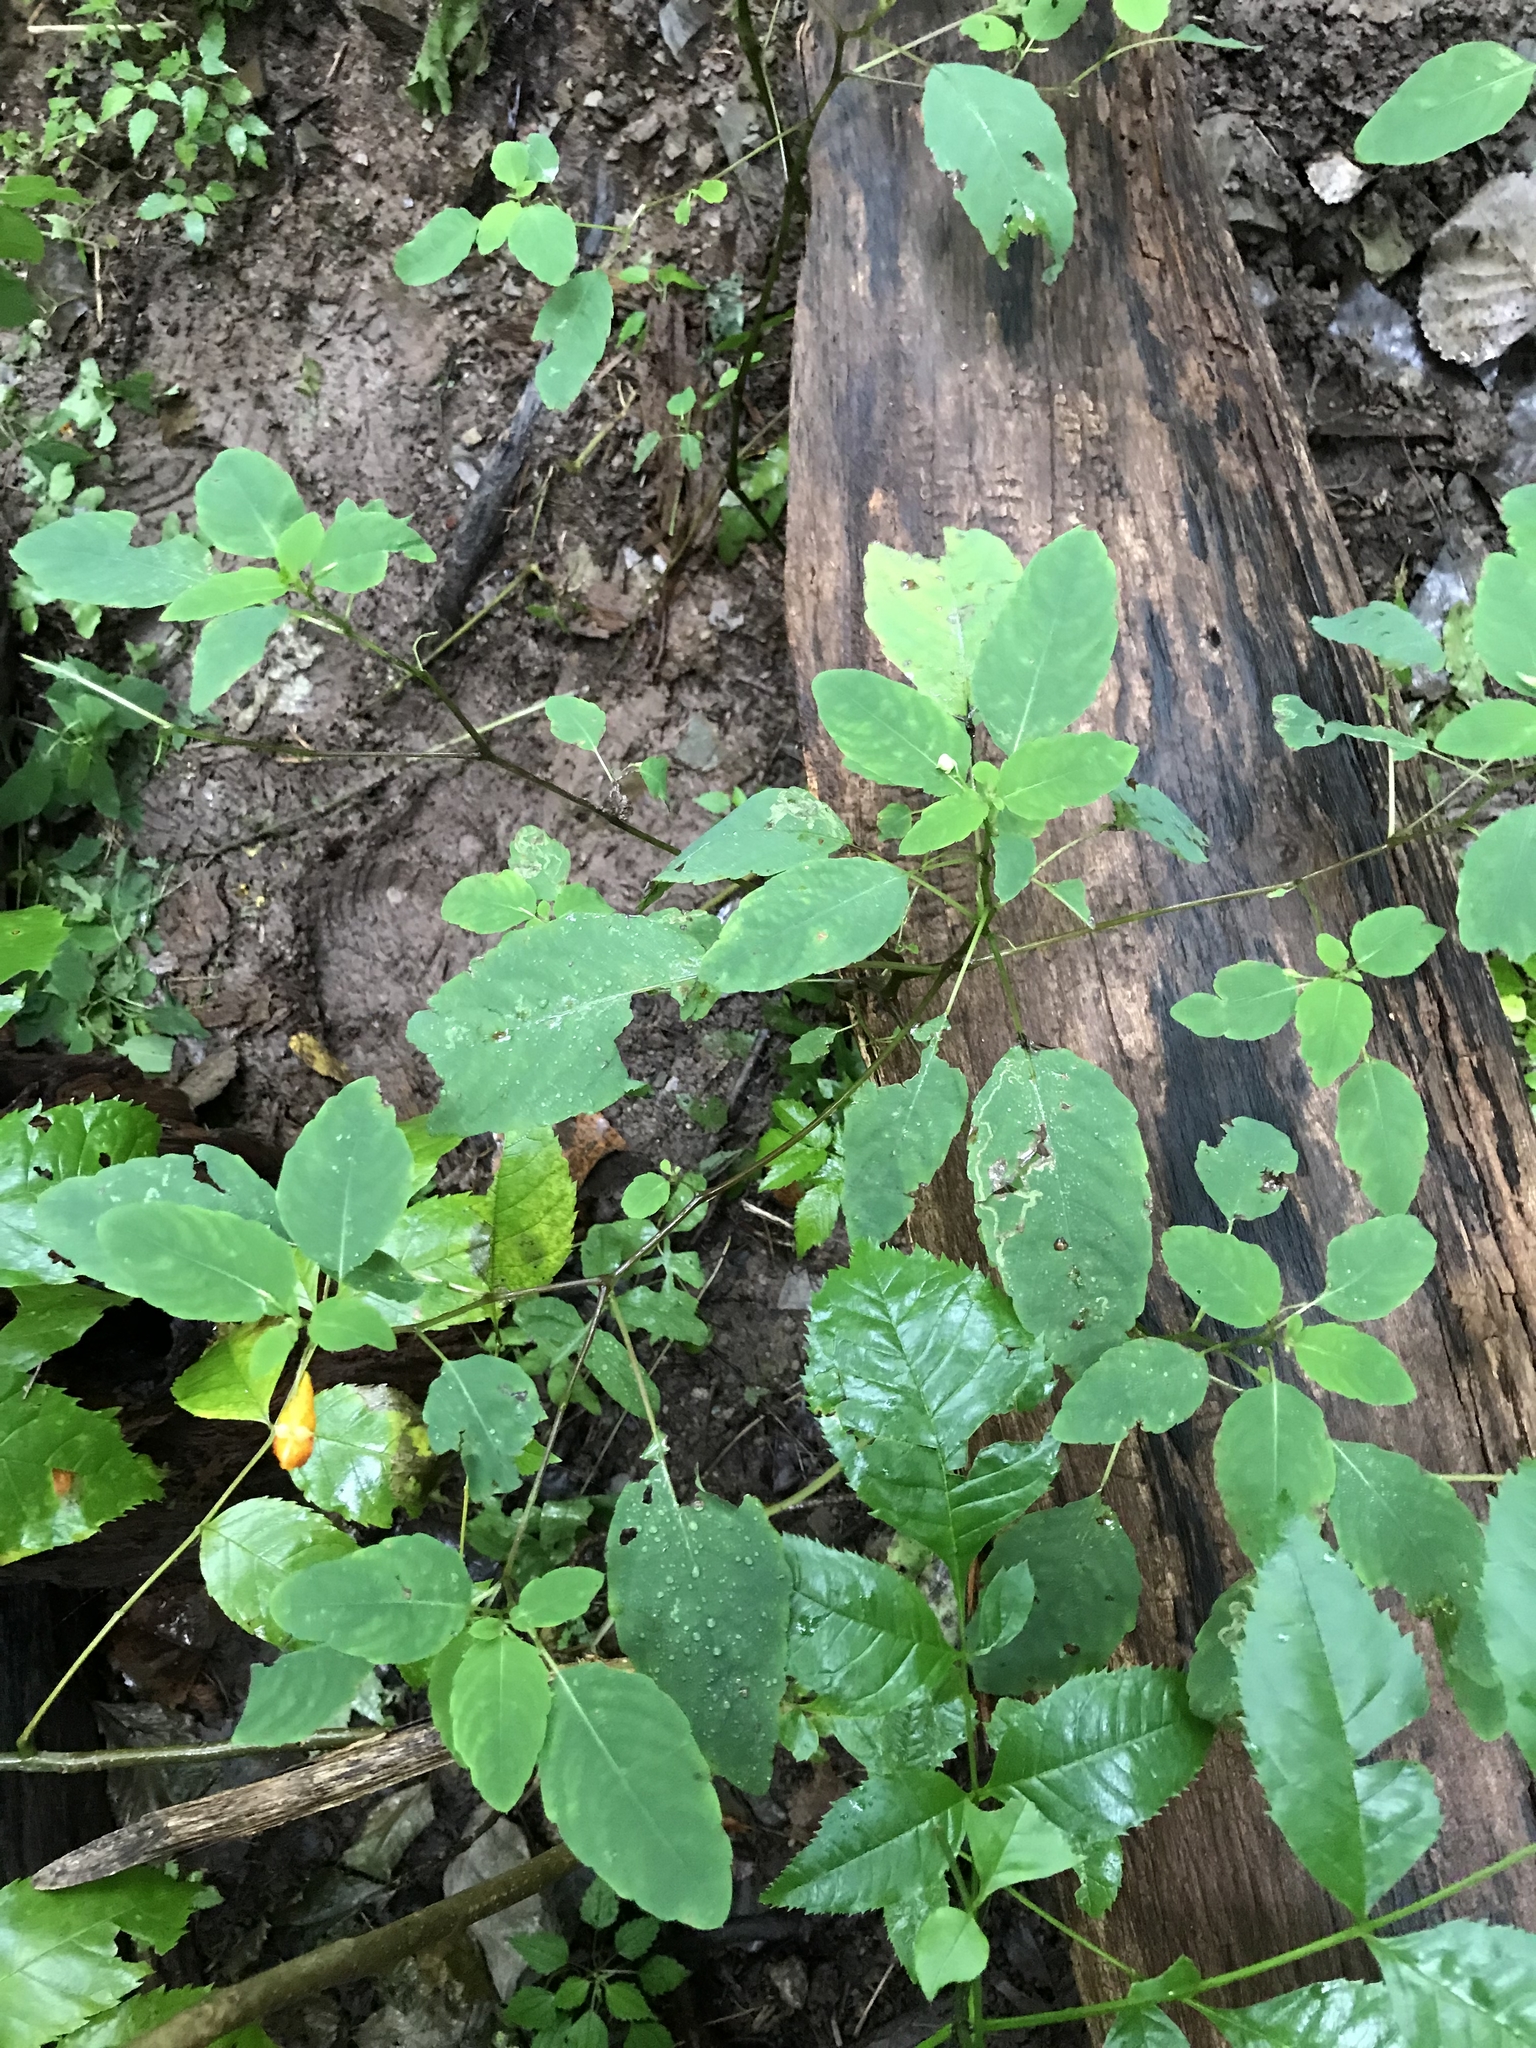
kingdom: Plantae
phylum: Tracheophyta
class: Magnoliopsida
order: Ericales
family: Balsaminaceae
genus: Impatiens
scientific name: Impatiens capensis
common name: Orange balsam
